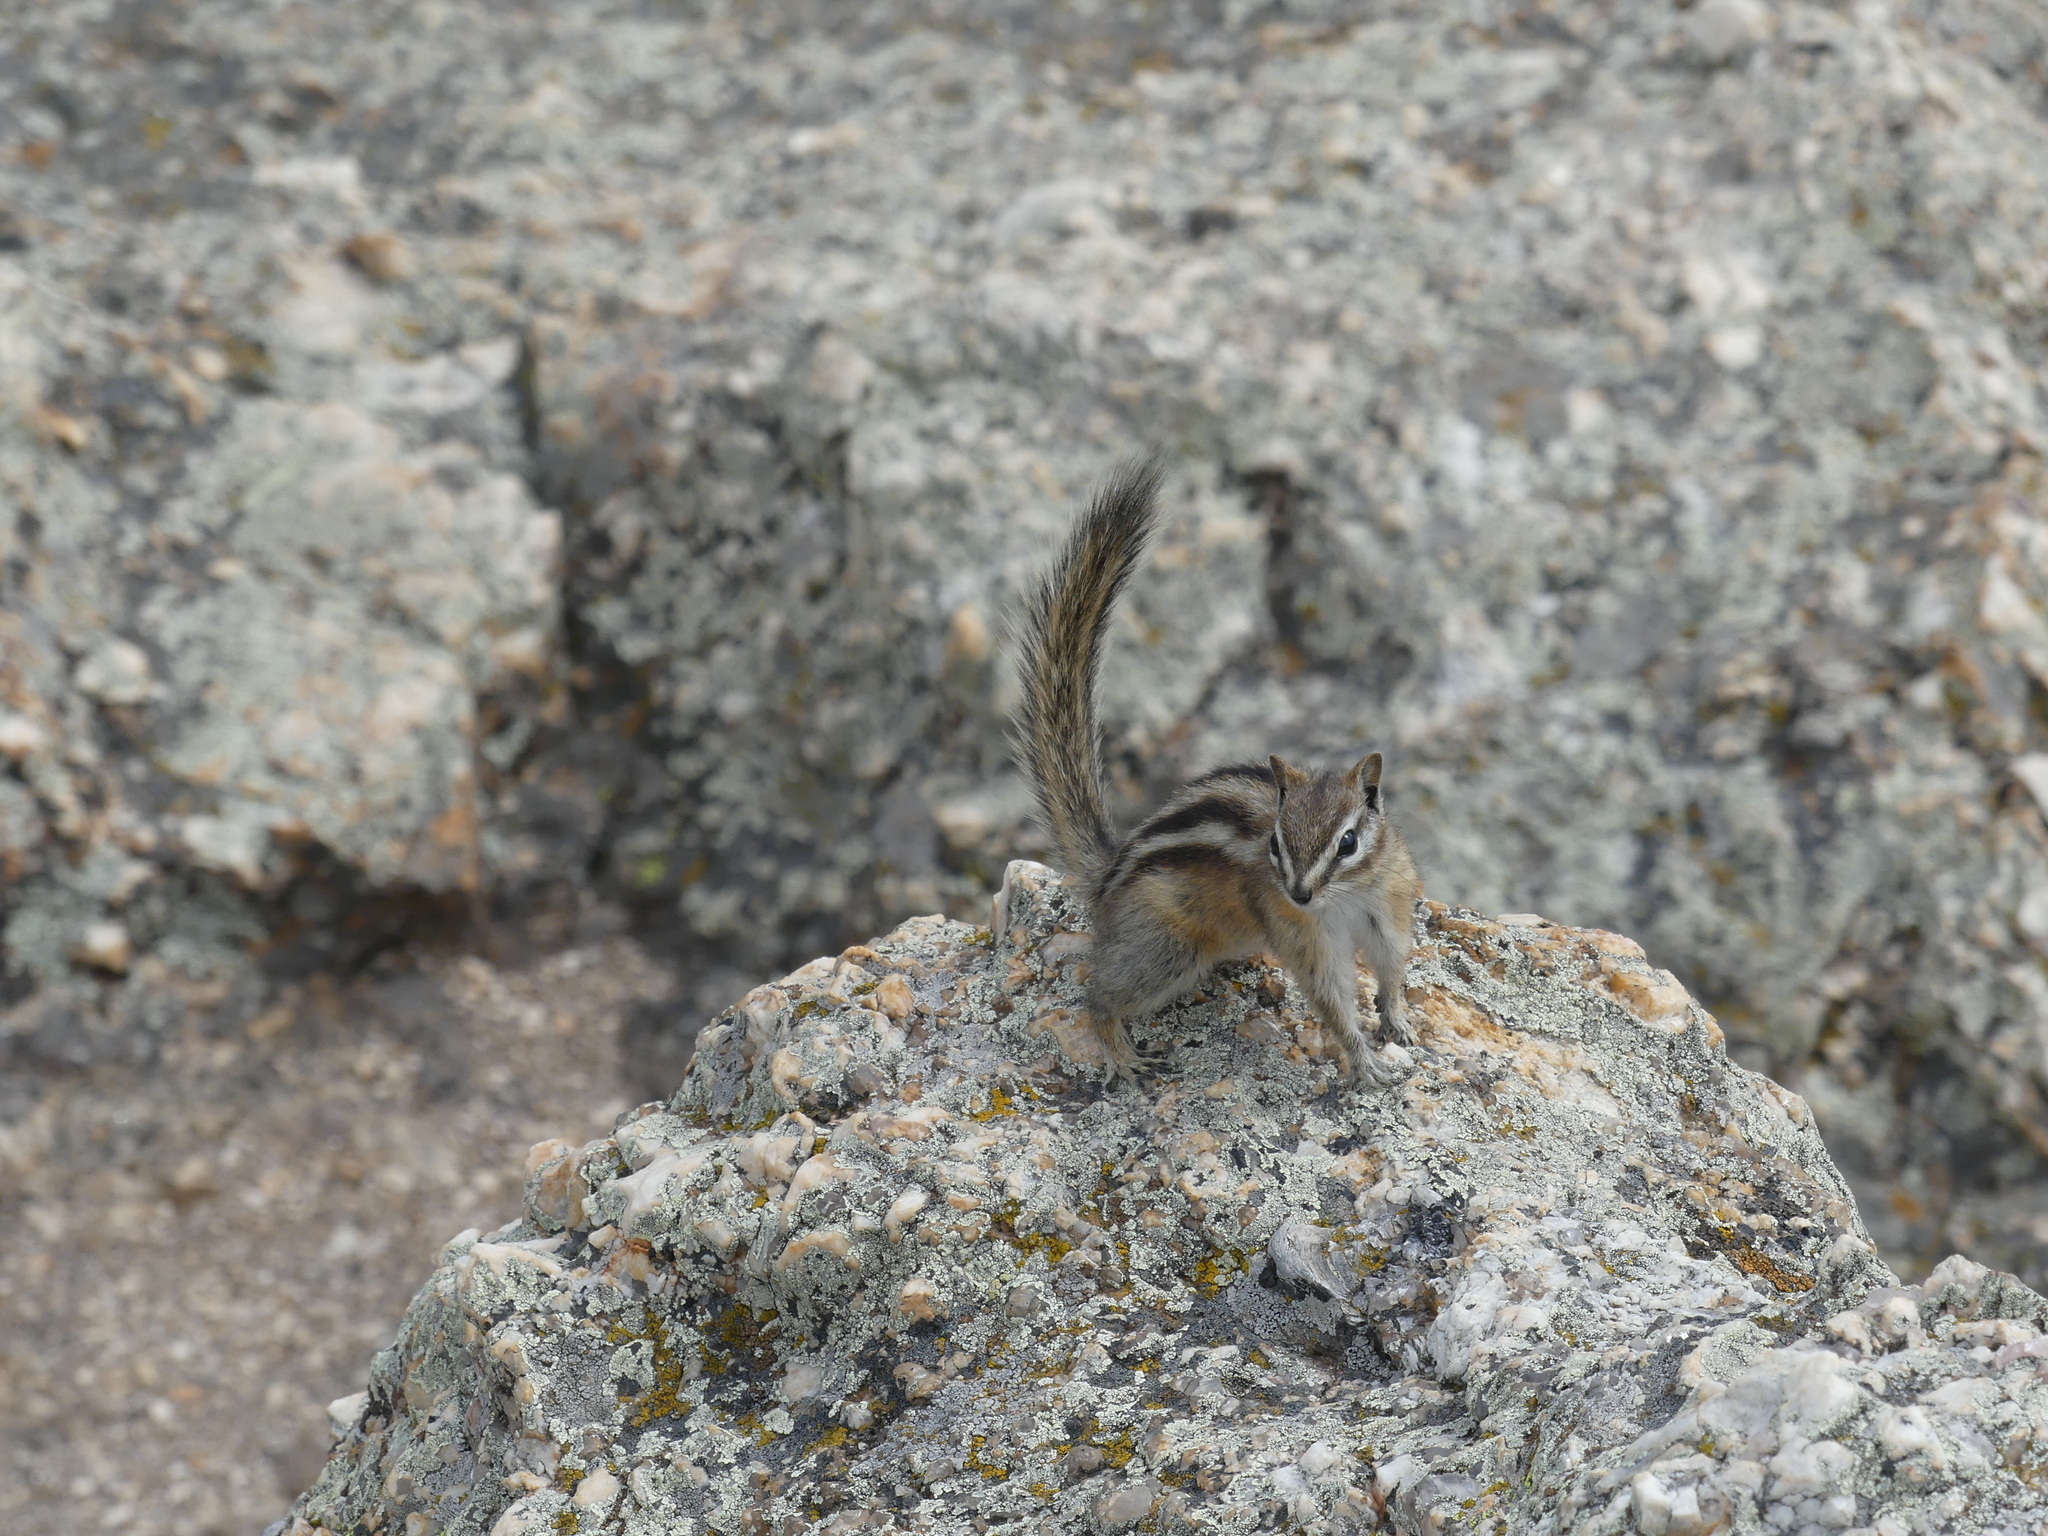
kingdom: Animalia
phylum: Chordata
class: Mammalia
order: Rodentia
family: Sciuridae
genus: Tamias
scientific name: Tamias minimus
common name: Least chipmunk
